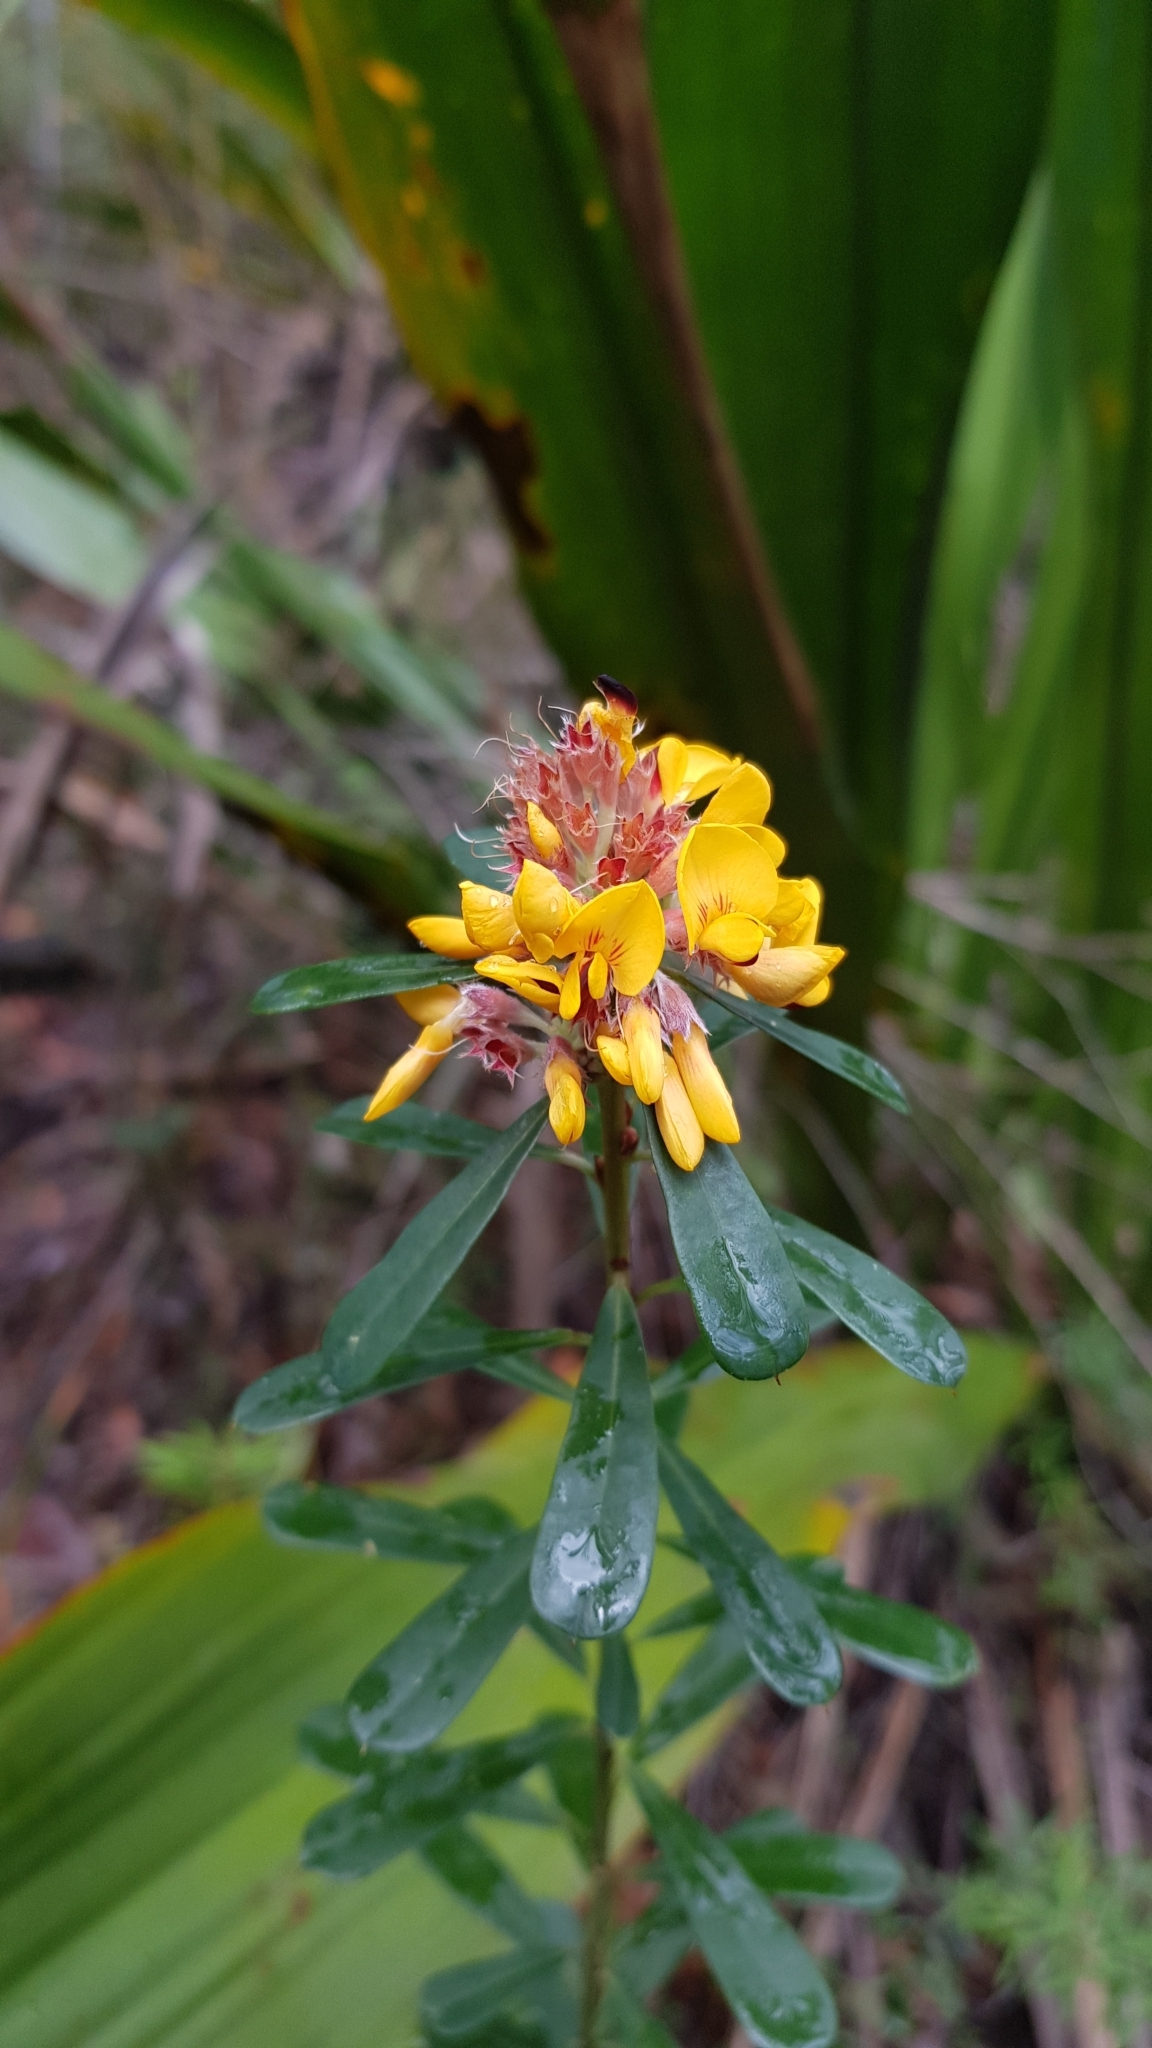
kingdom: Plantae
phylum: Tracheophyta
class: Magnoliopsida
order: Fabales
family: Fabaceae
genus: Pultenaea
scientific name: Pultenaea daphnoides
